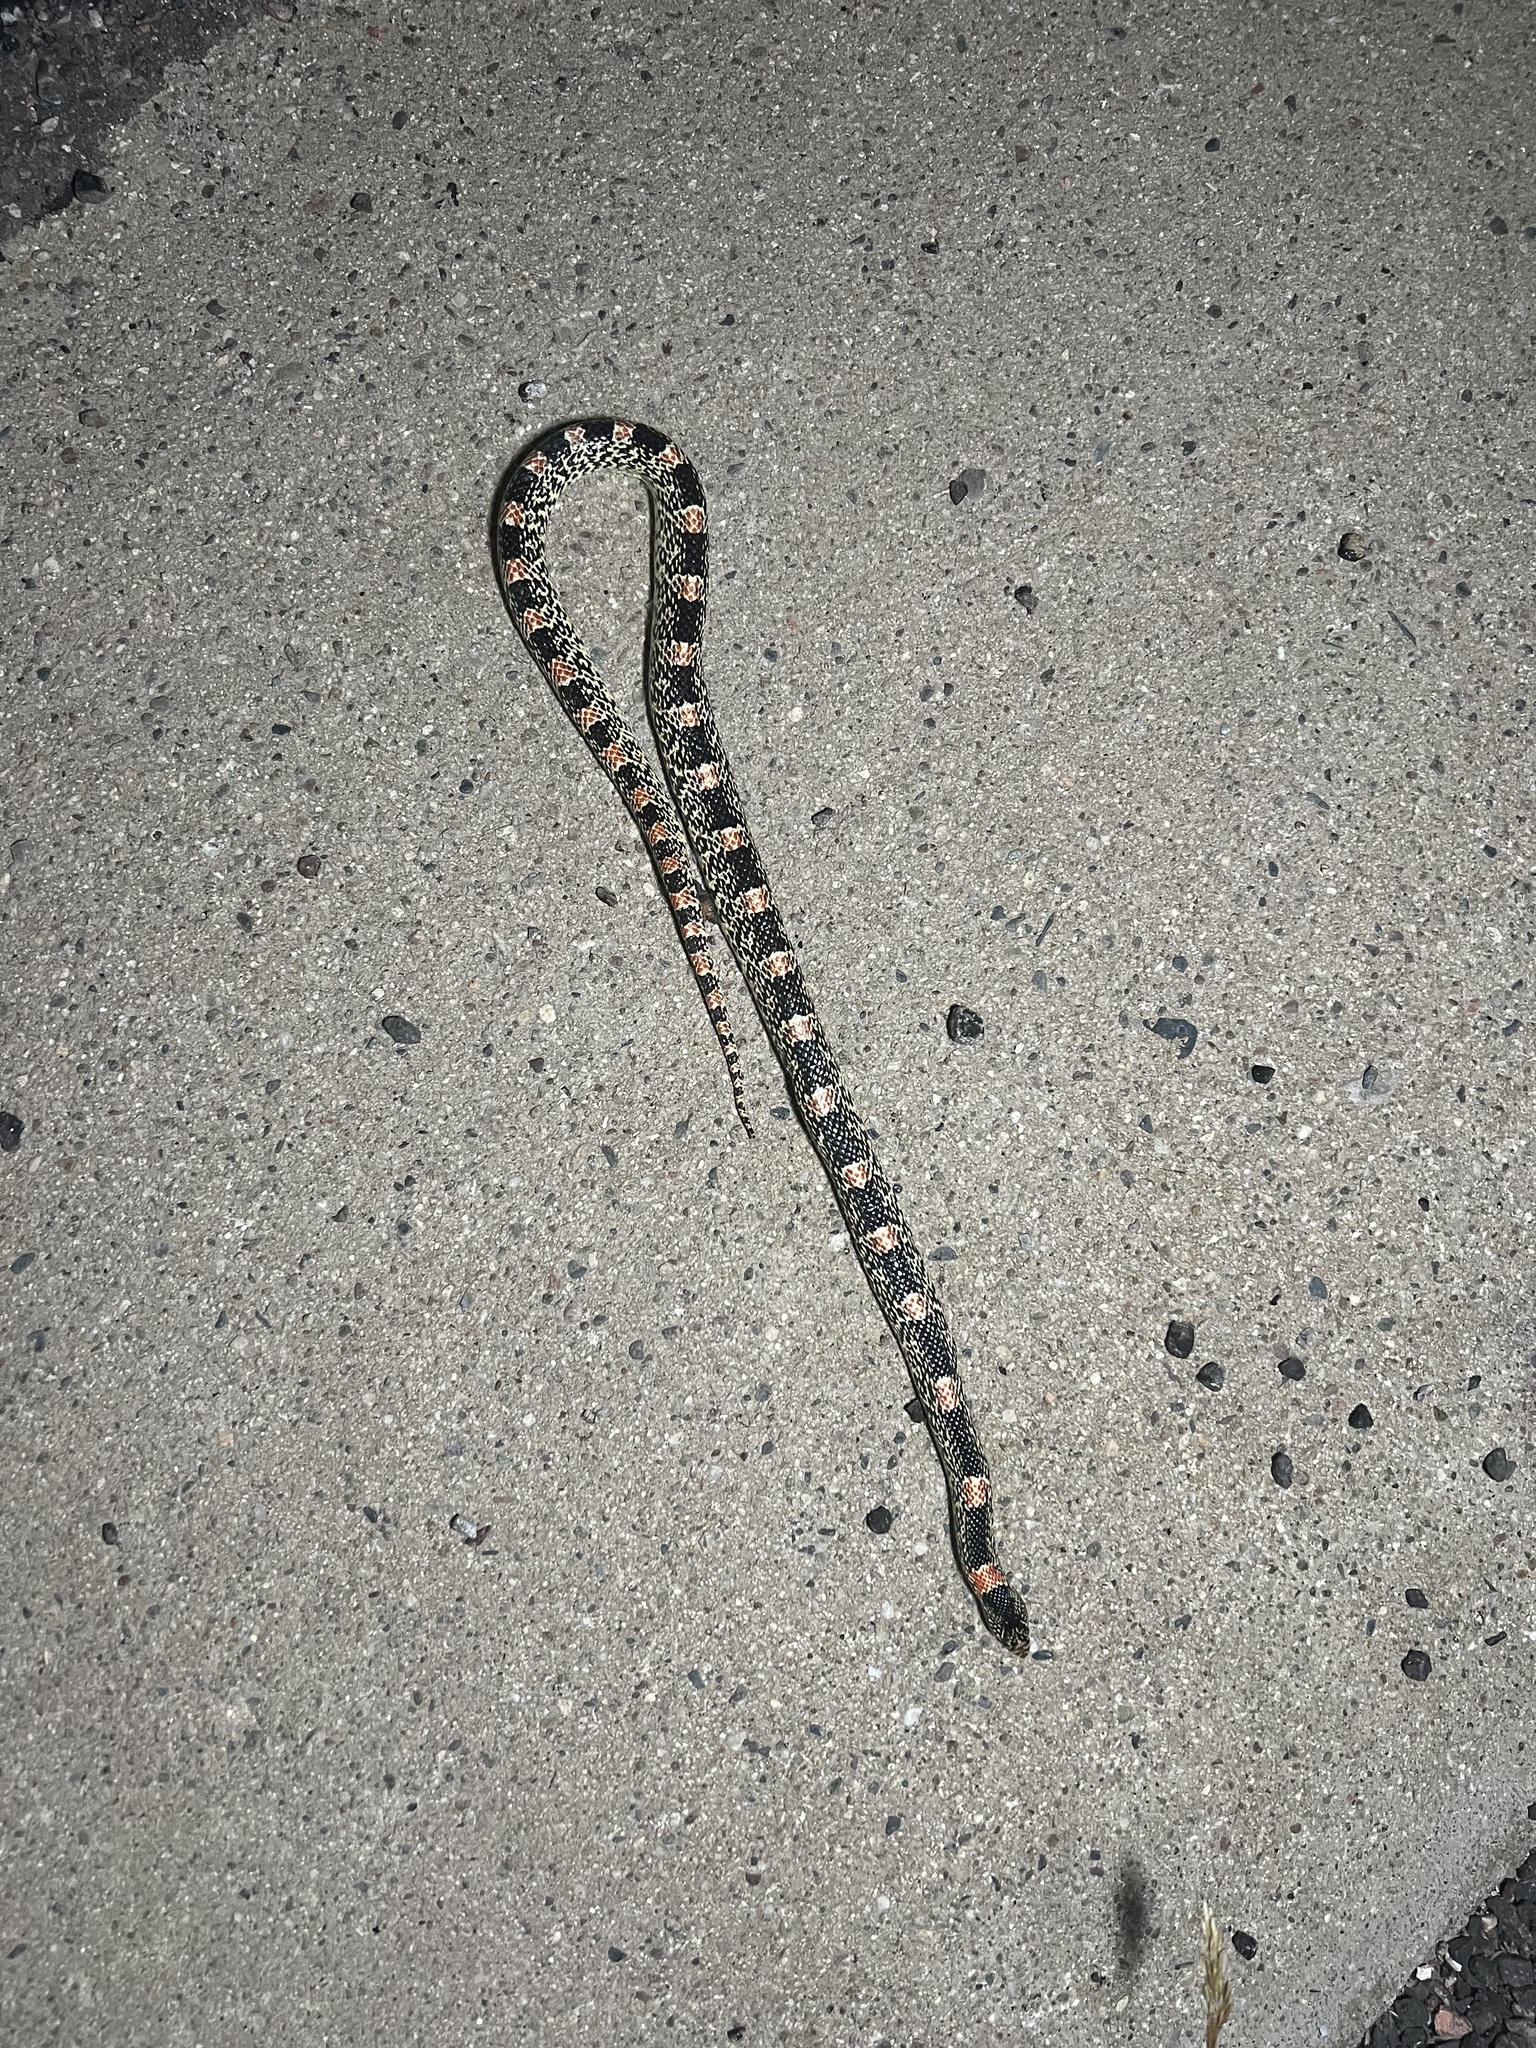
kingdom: Animalia
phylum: Chordata
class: Squamata
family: Colubridae
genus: Rhinocheilus
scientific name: Rhinocheilus lecontei
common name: Longnose snake
